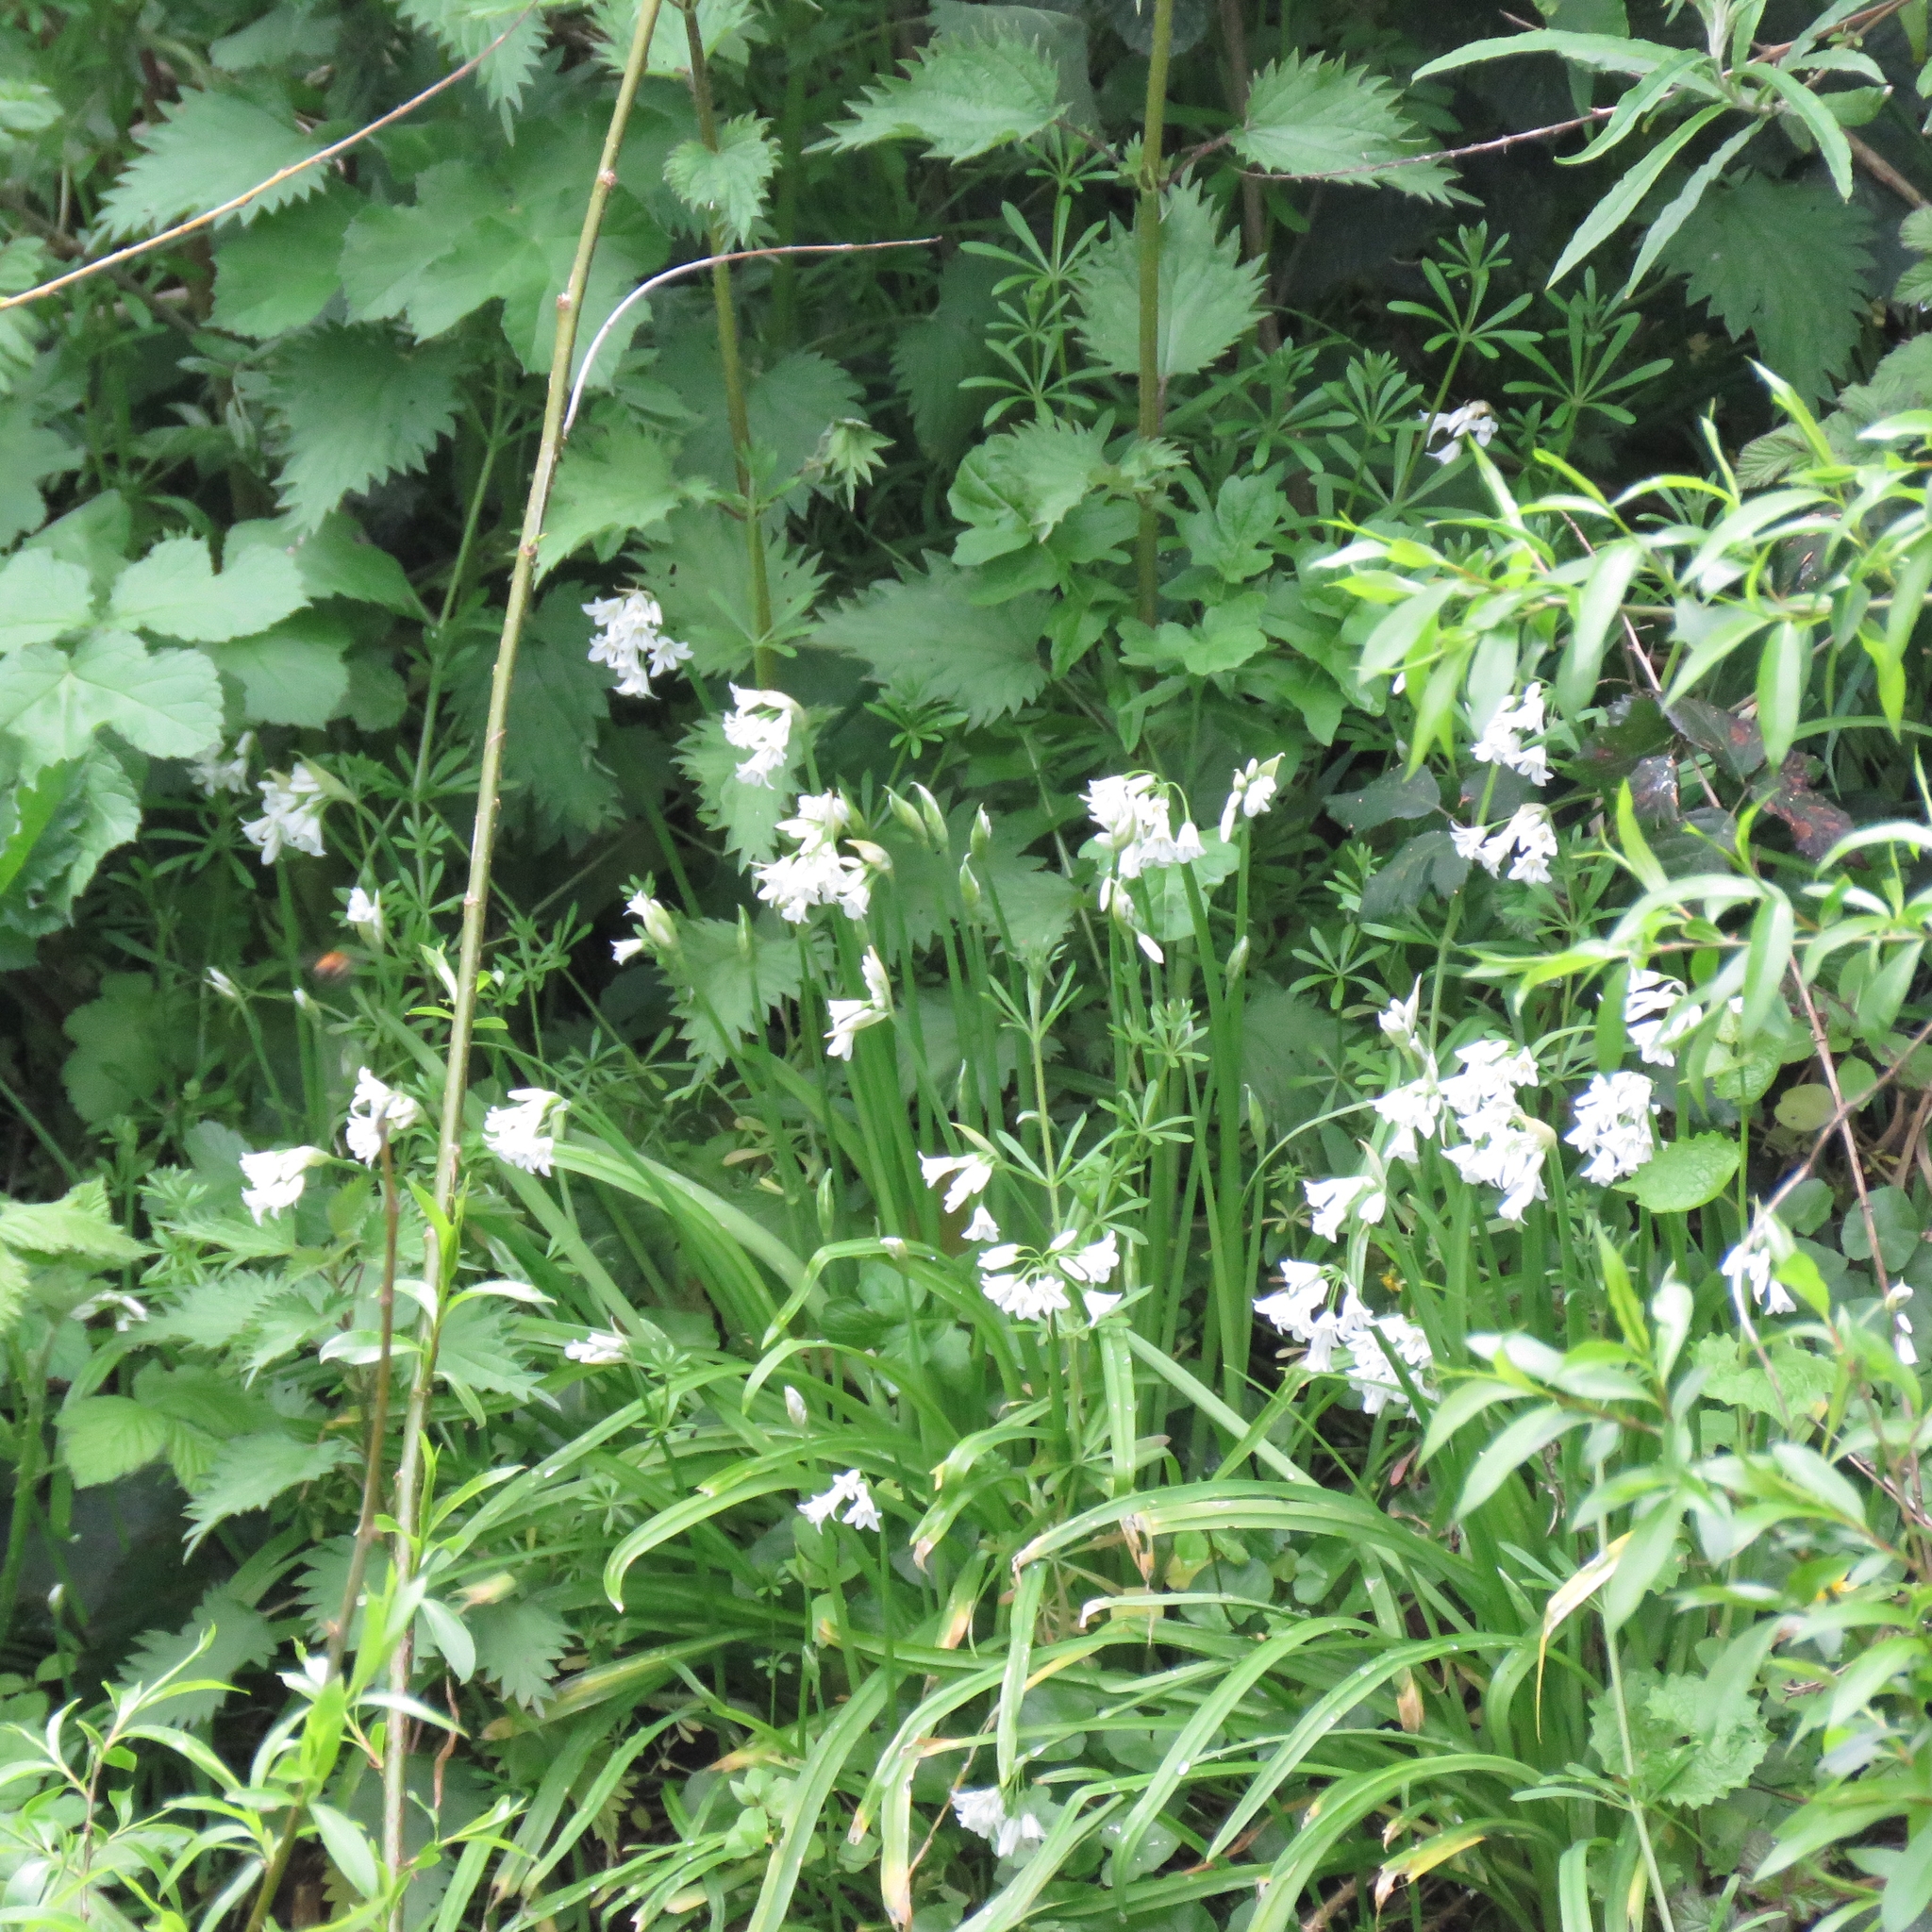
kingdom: Plantae
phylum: Tracheophyta
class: Magnoliopsida
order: Apiales
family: Apiaceae
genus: Heracleum
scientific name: Heracleum sphondylium
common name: Hogweed
